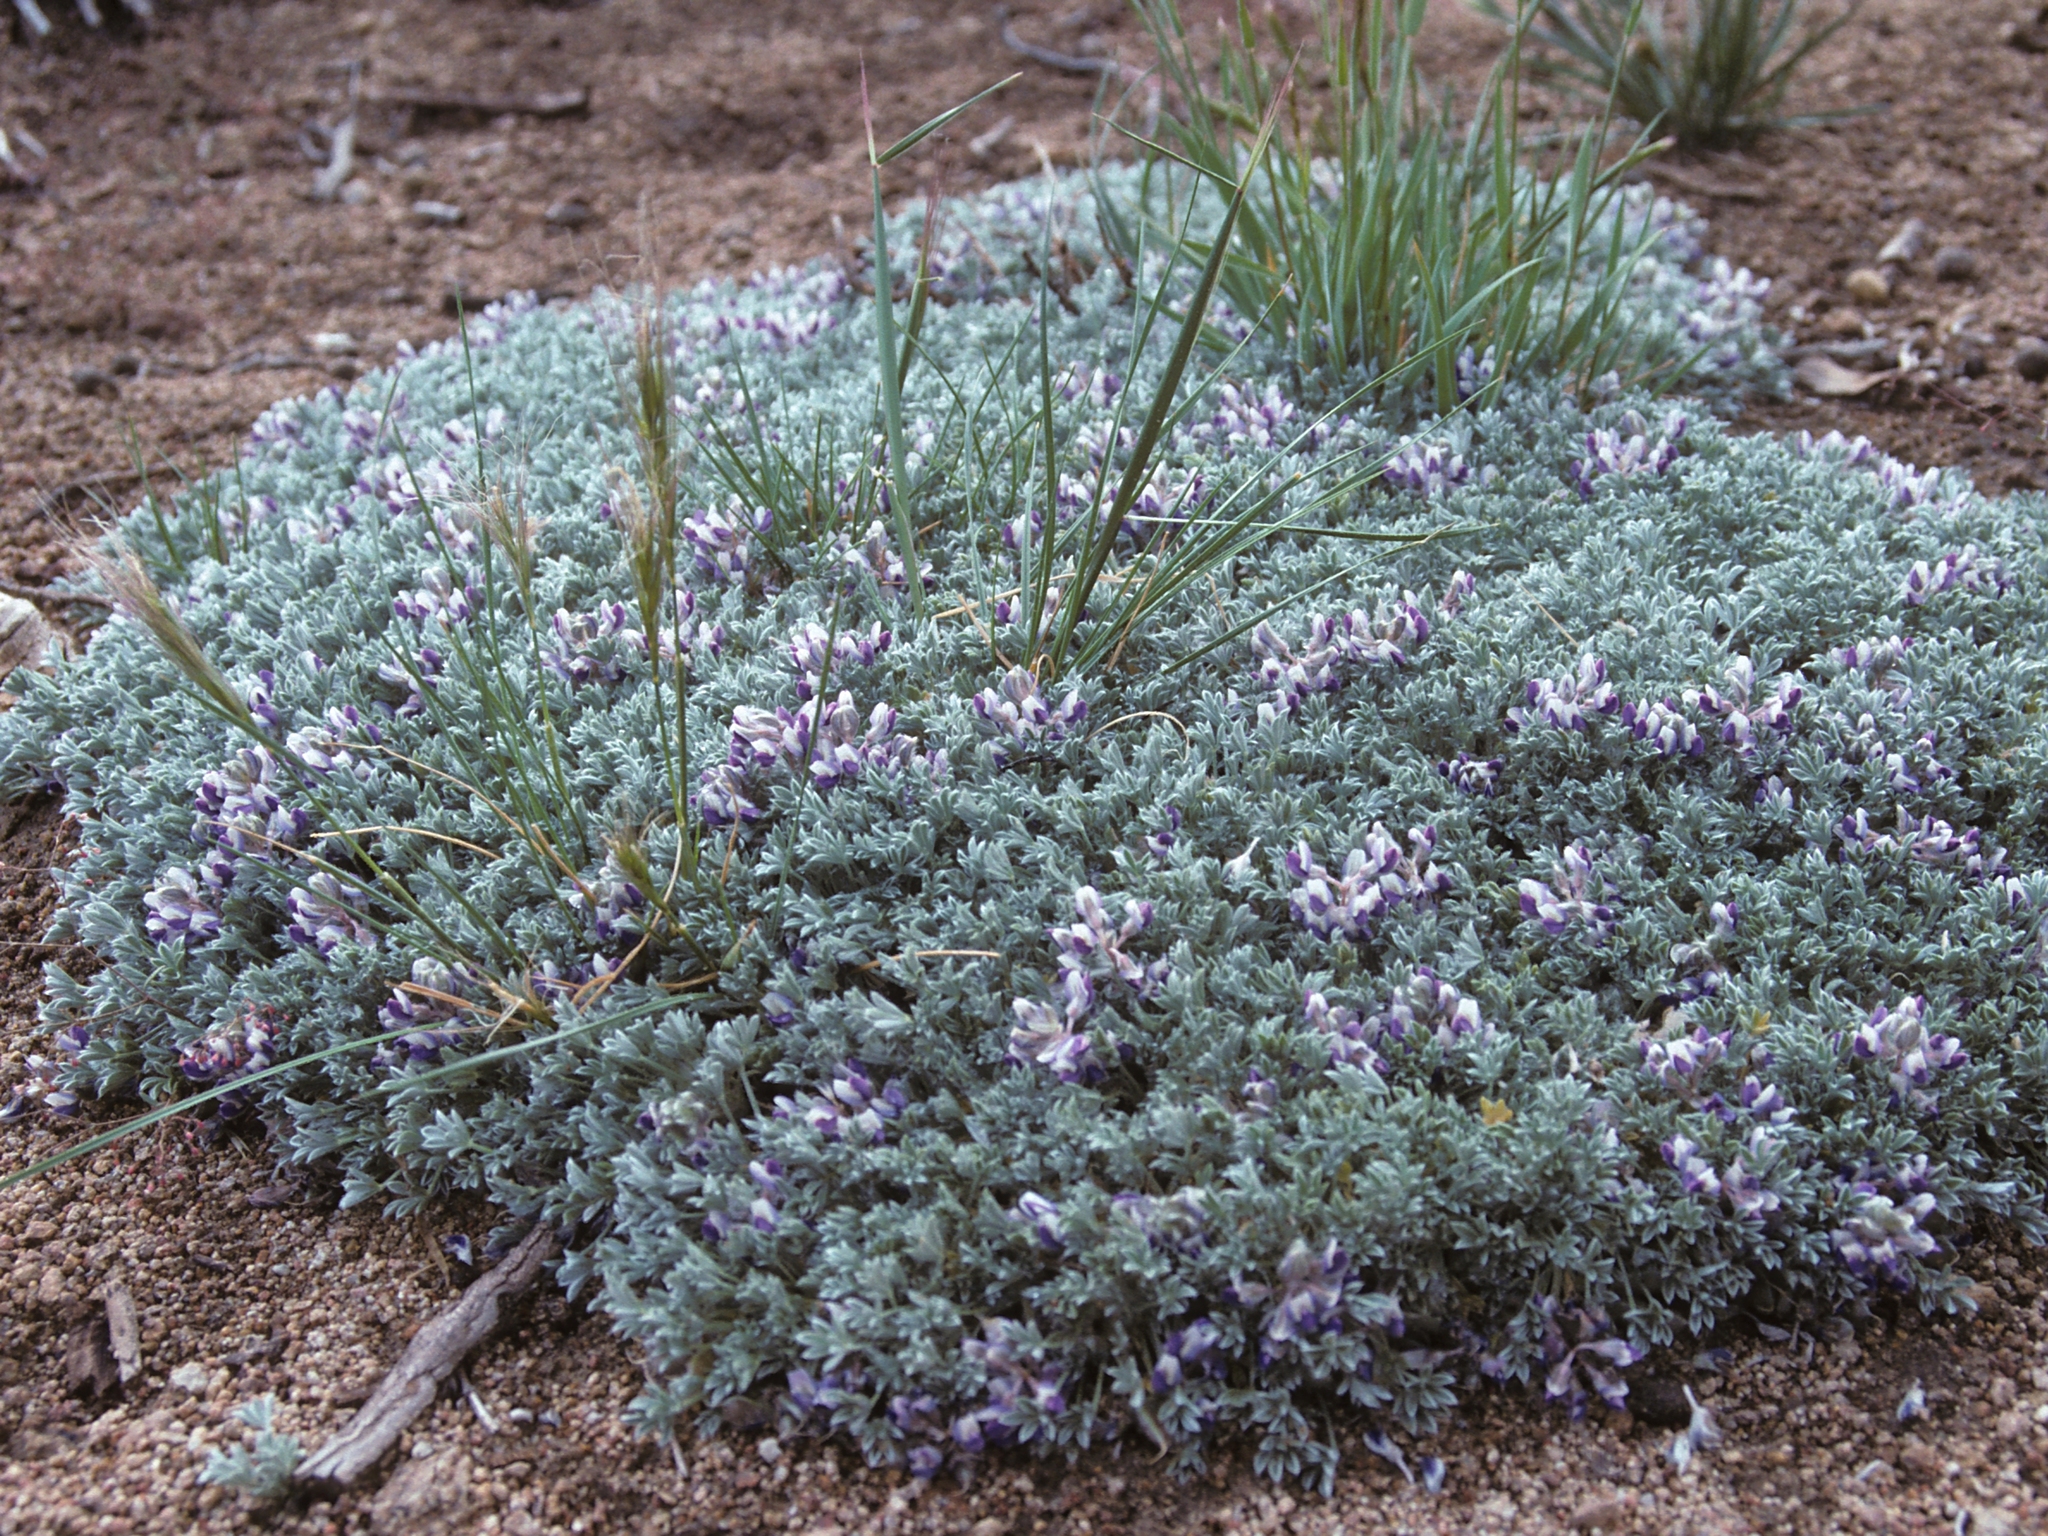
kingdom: Plantae
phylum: Tracheophyta
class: Magnoliopsida
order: Fabales
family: Fabaceae
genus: Lupinus
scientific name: Lupinus breweri
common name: Brewer's lupine
